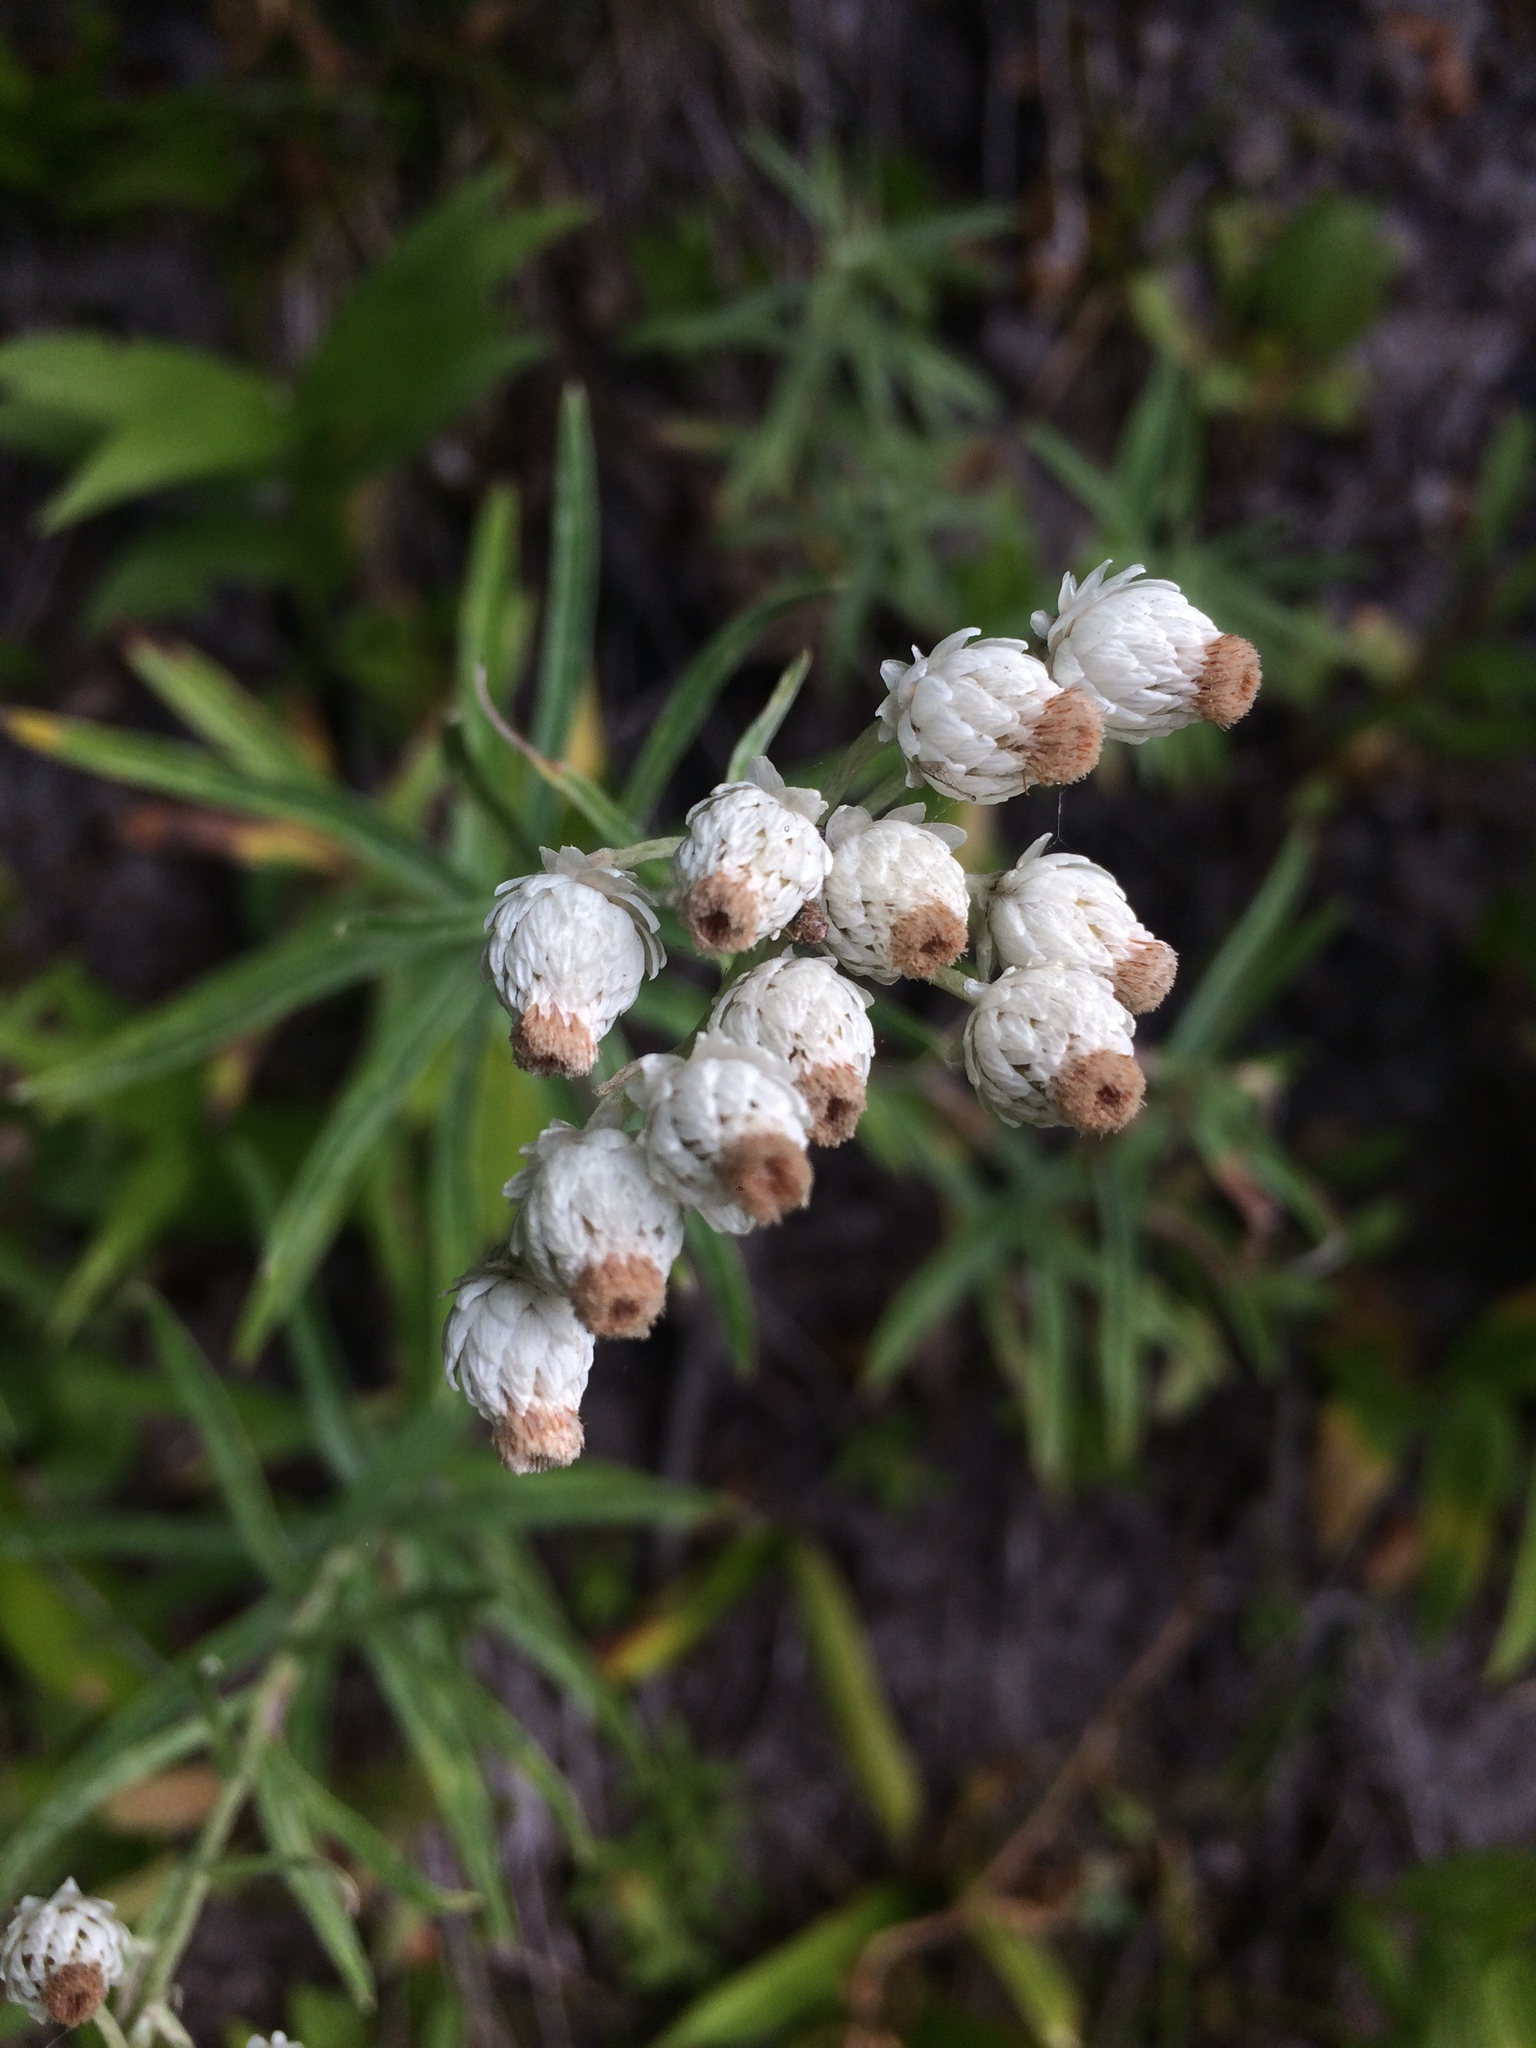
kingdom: Plantae
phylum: Tracheophyta
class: Magnoliopsida
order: Asterales
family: Asteraceae
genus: Anaphalis
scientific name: Anaphalis margaritacea
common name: Pearly everlasting
